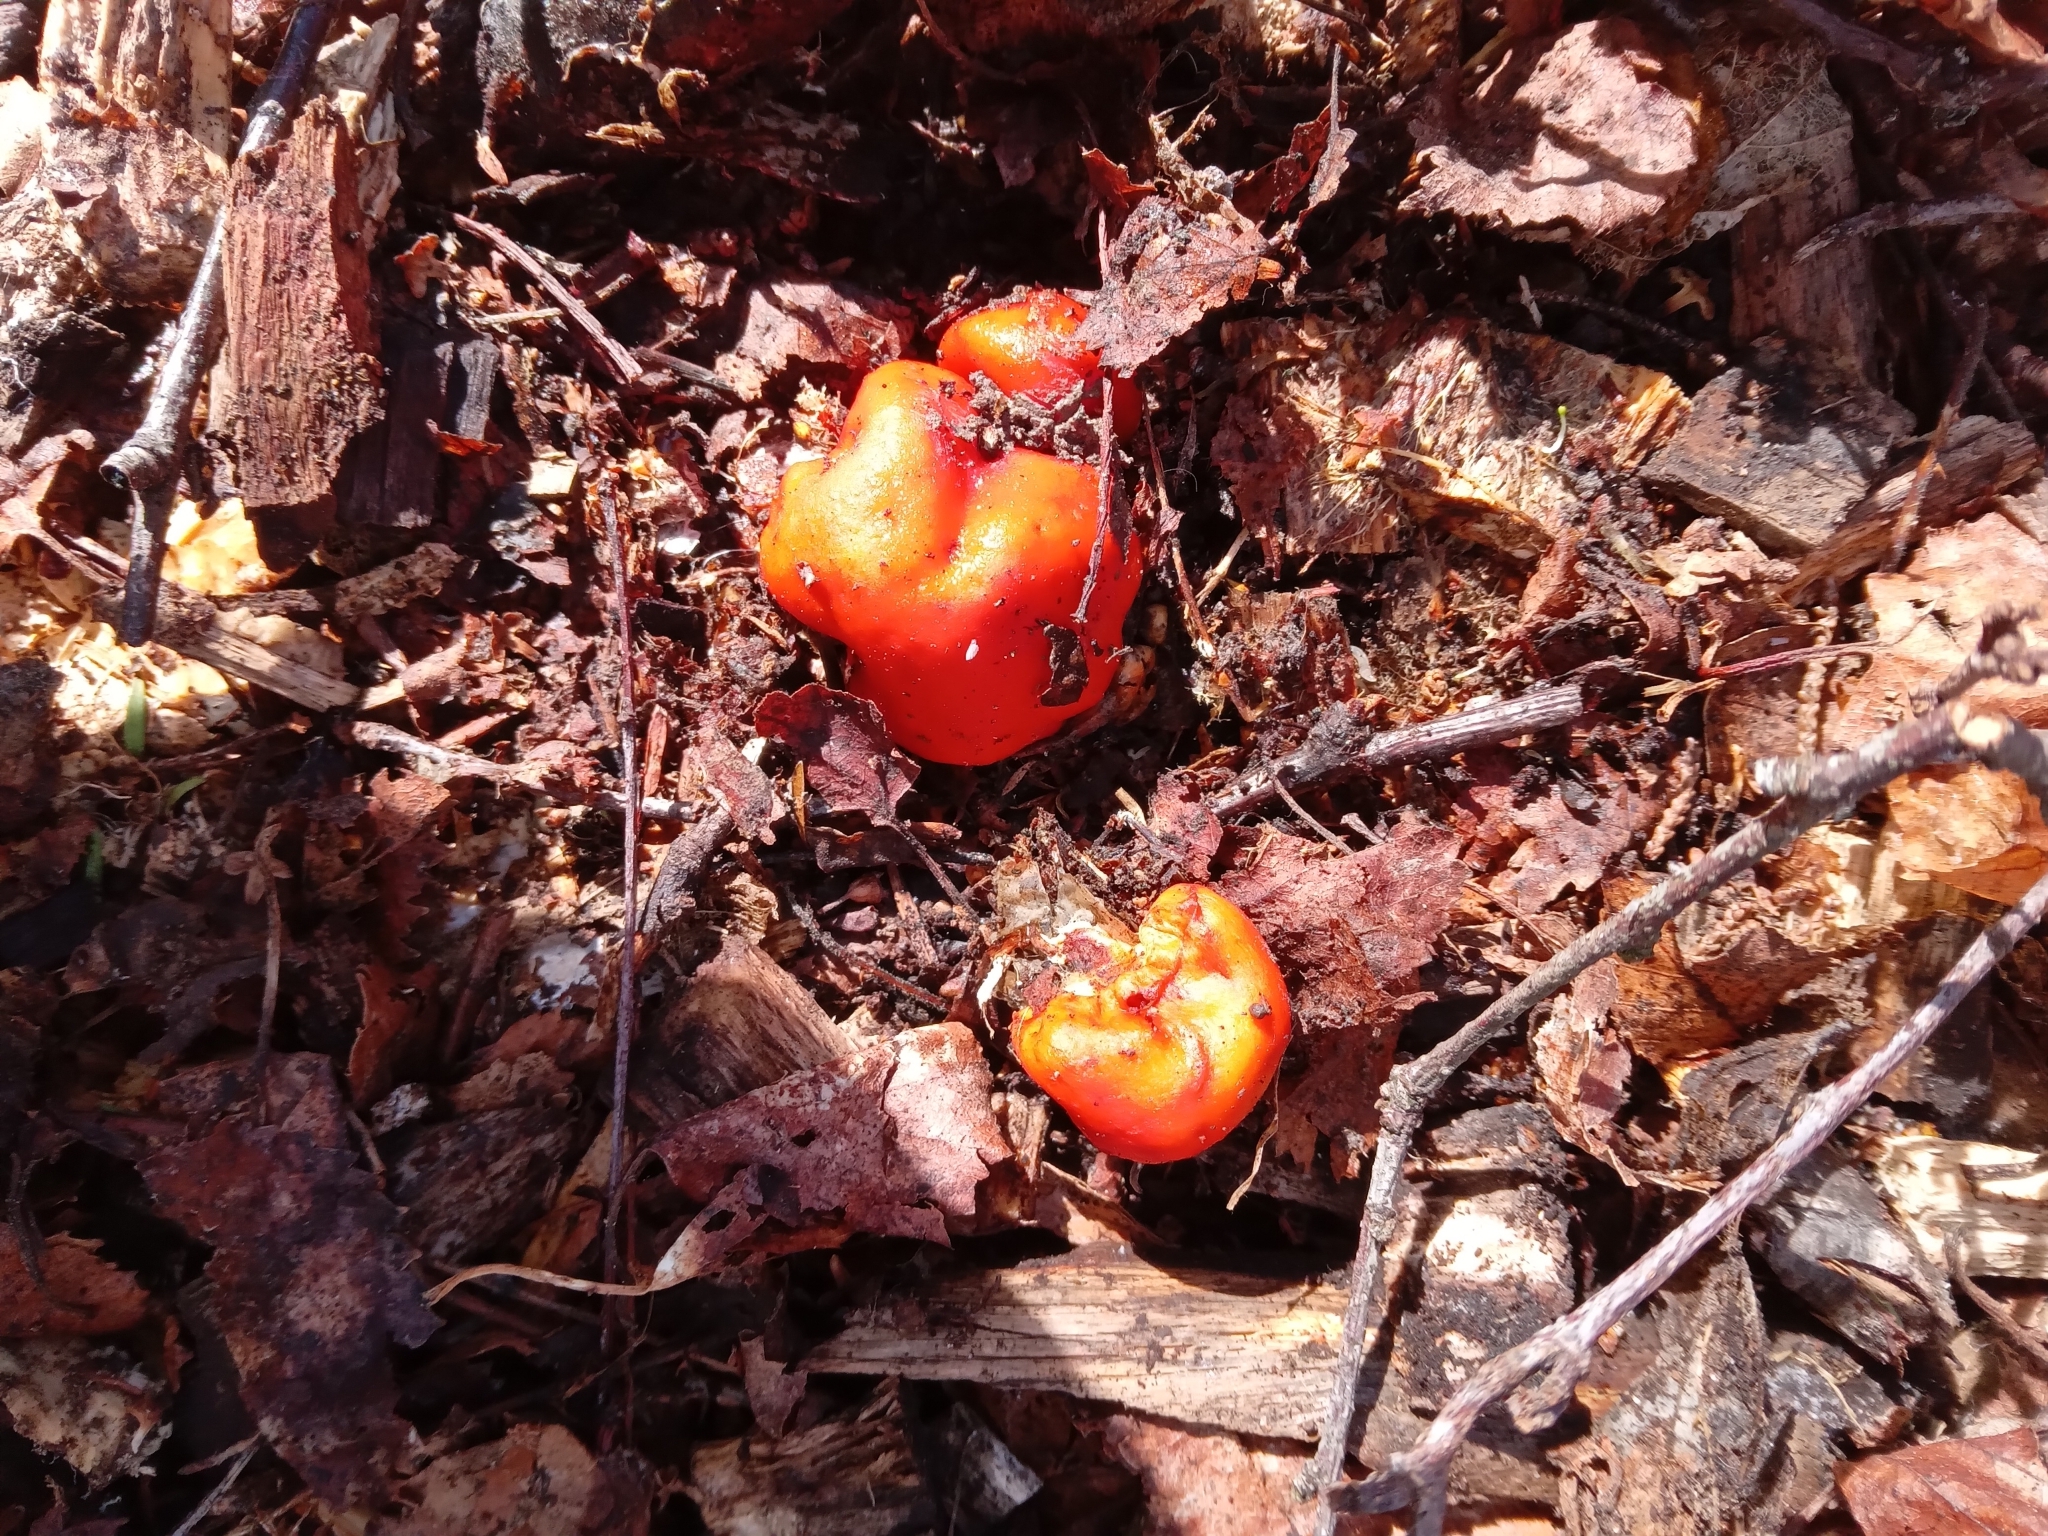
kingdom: Fungi
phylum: Basidiomycota
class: Agaricomycetes
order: Agaricales
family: Strophariaceae
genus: Leratiomyces
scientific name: Leratiomyces erythrocephalus
